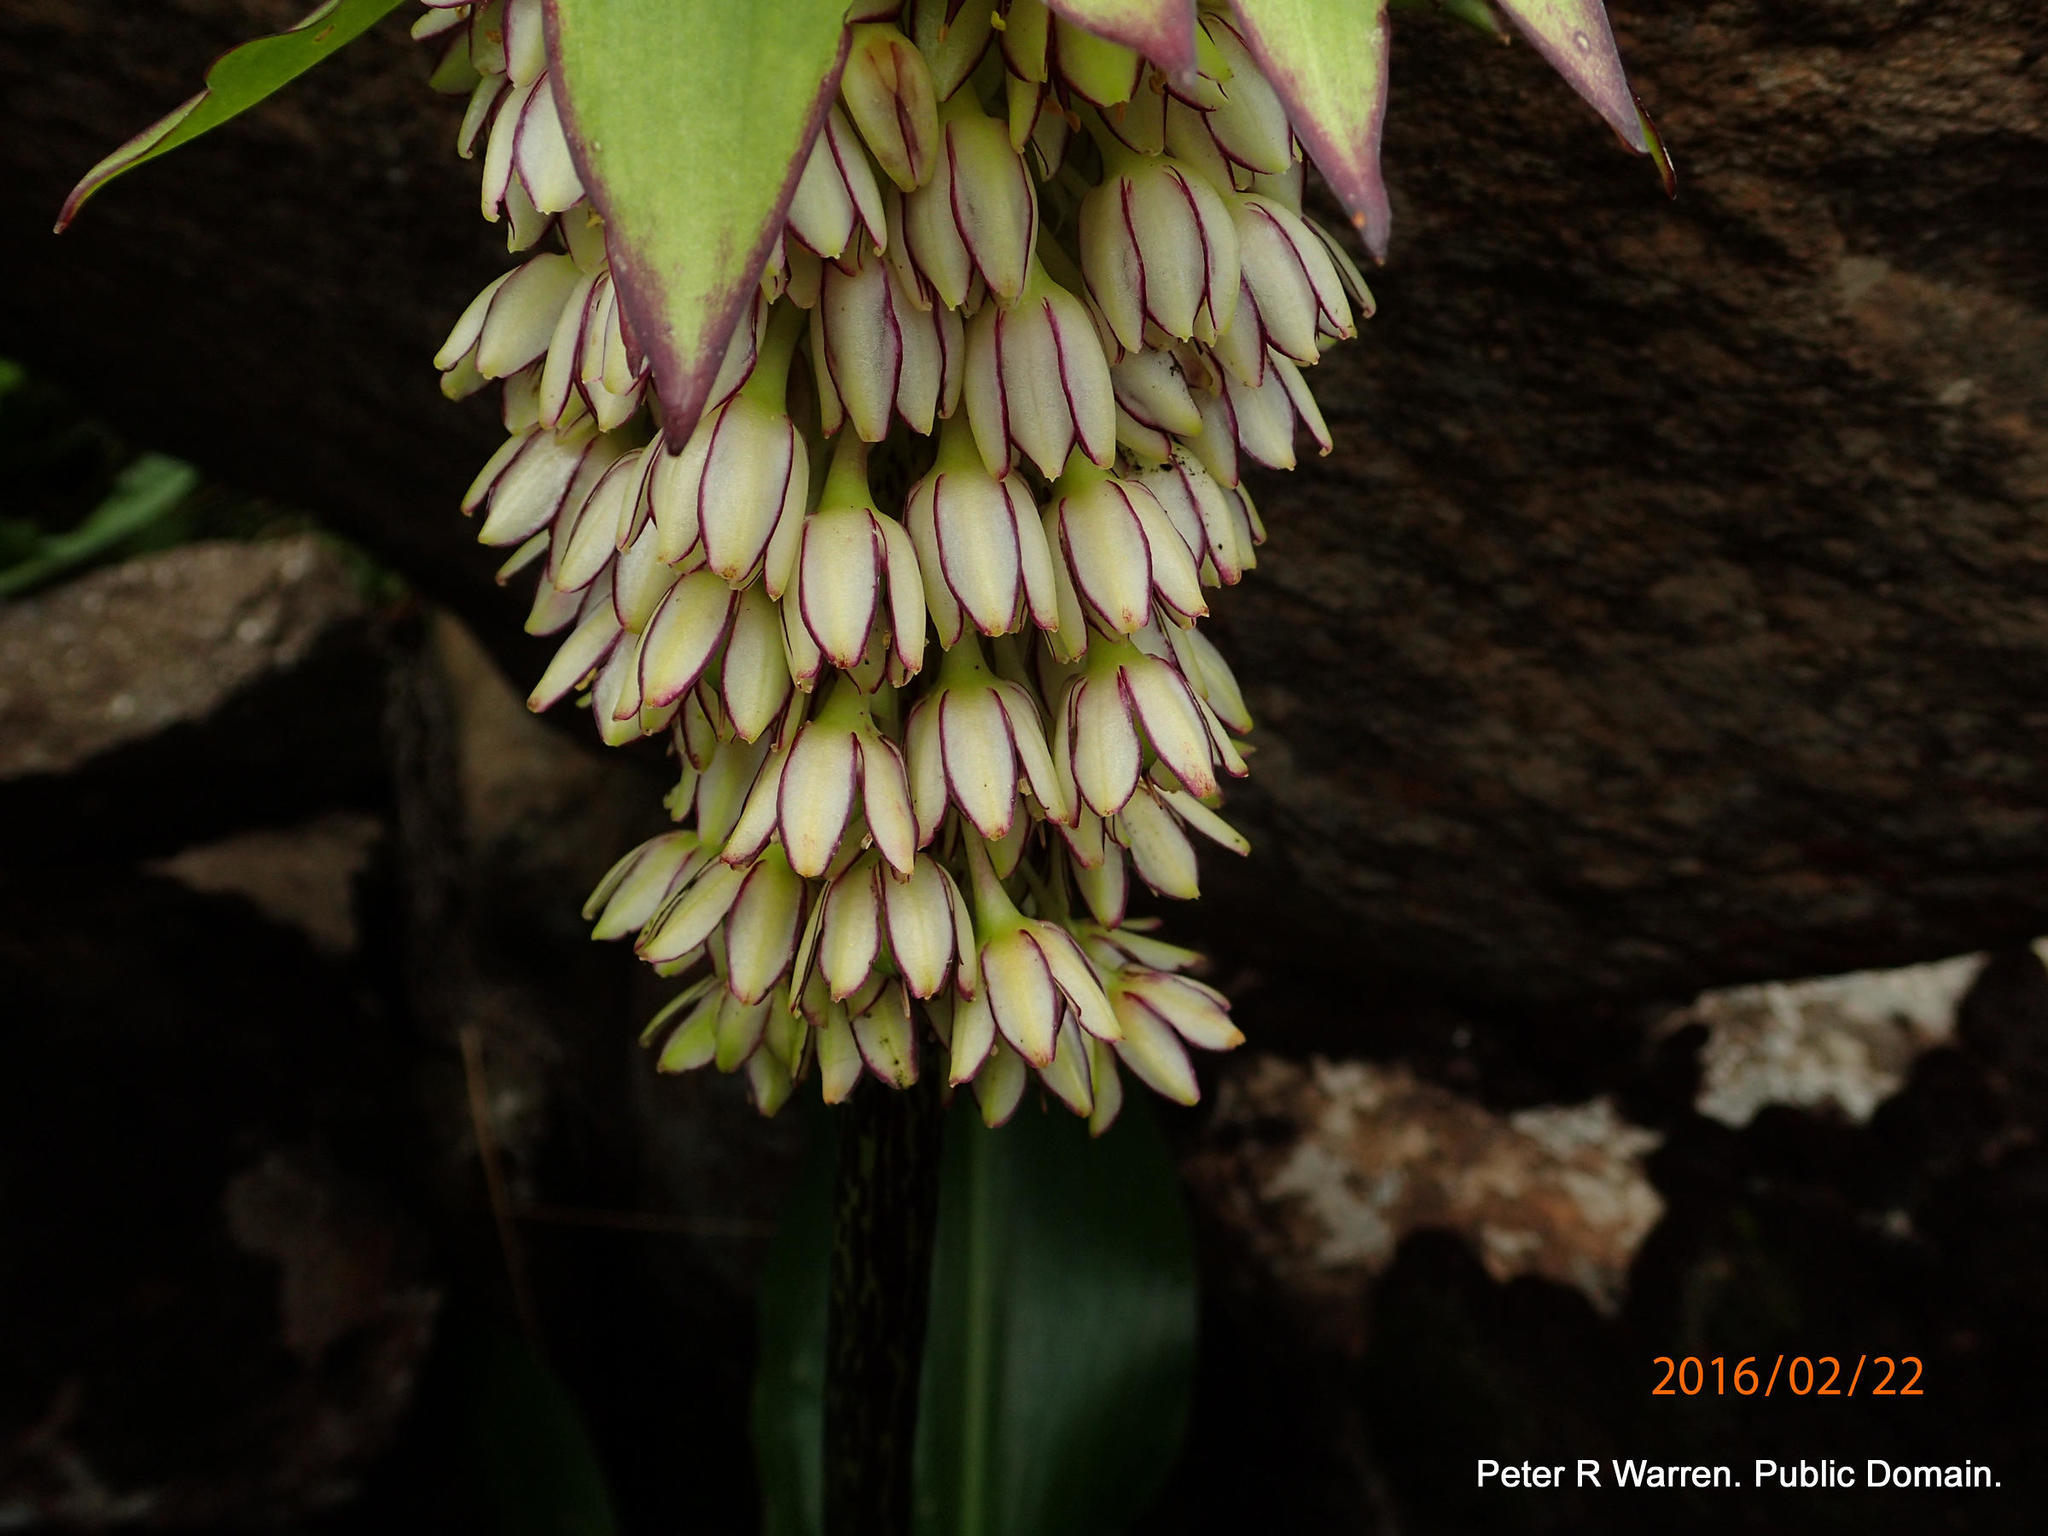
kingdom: Plantae
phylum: Tracheophyta
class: Liliopsida
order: Asparagales
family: Asparagaceae
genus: Eucomis
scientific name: Eucomis bicolor
